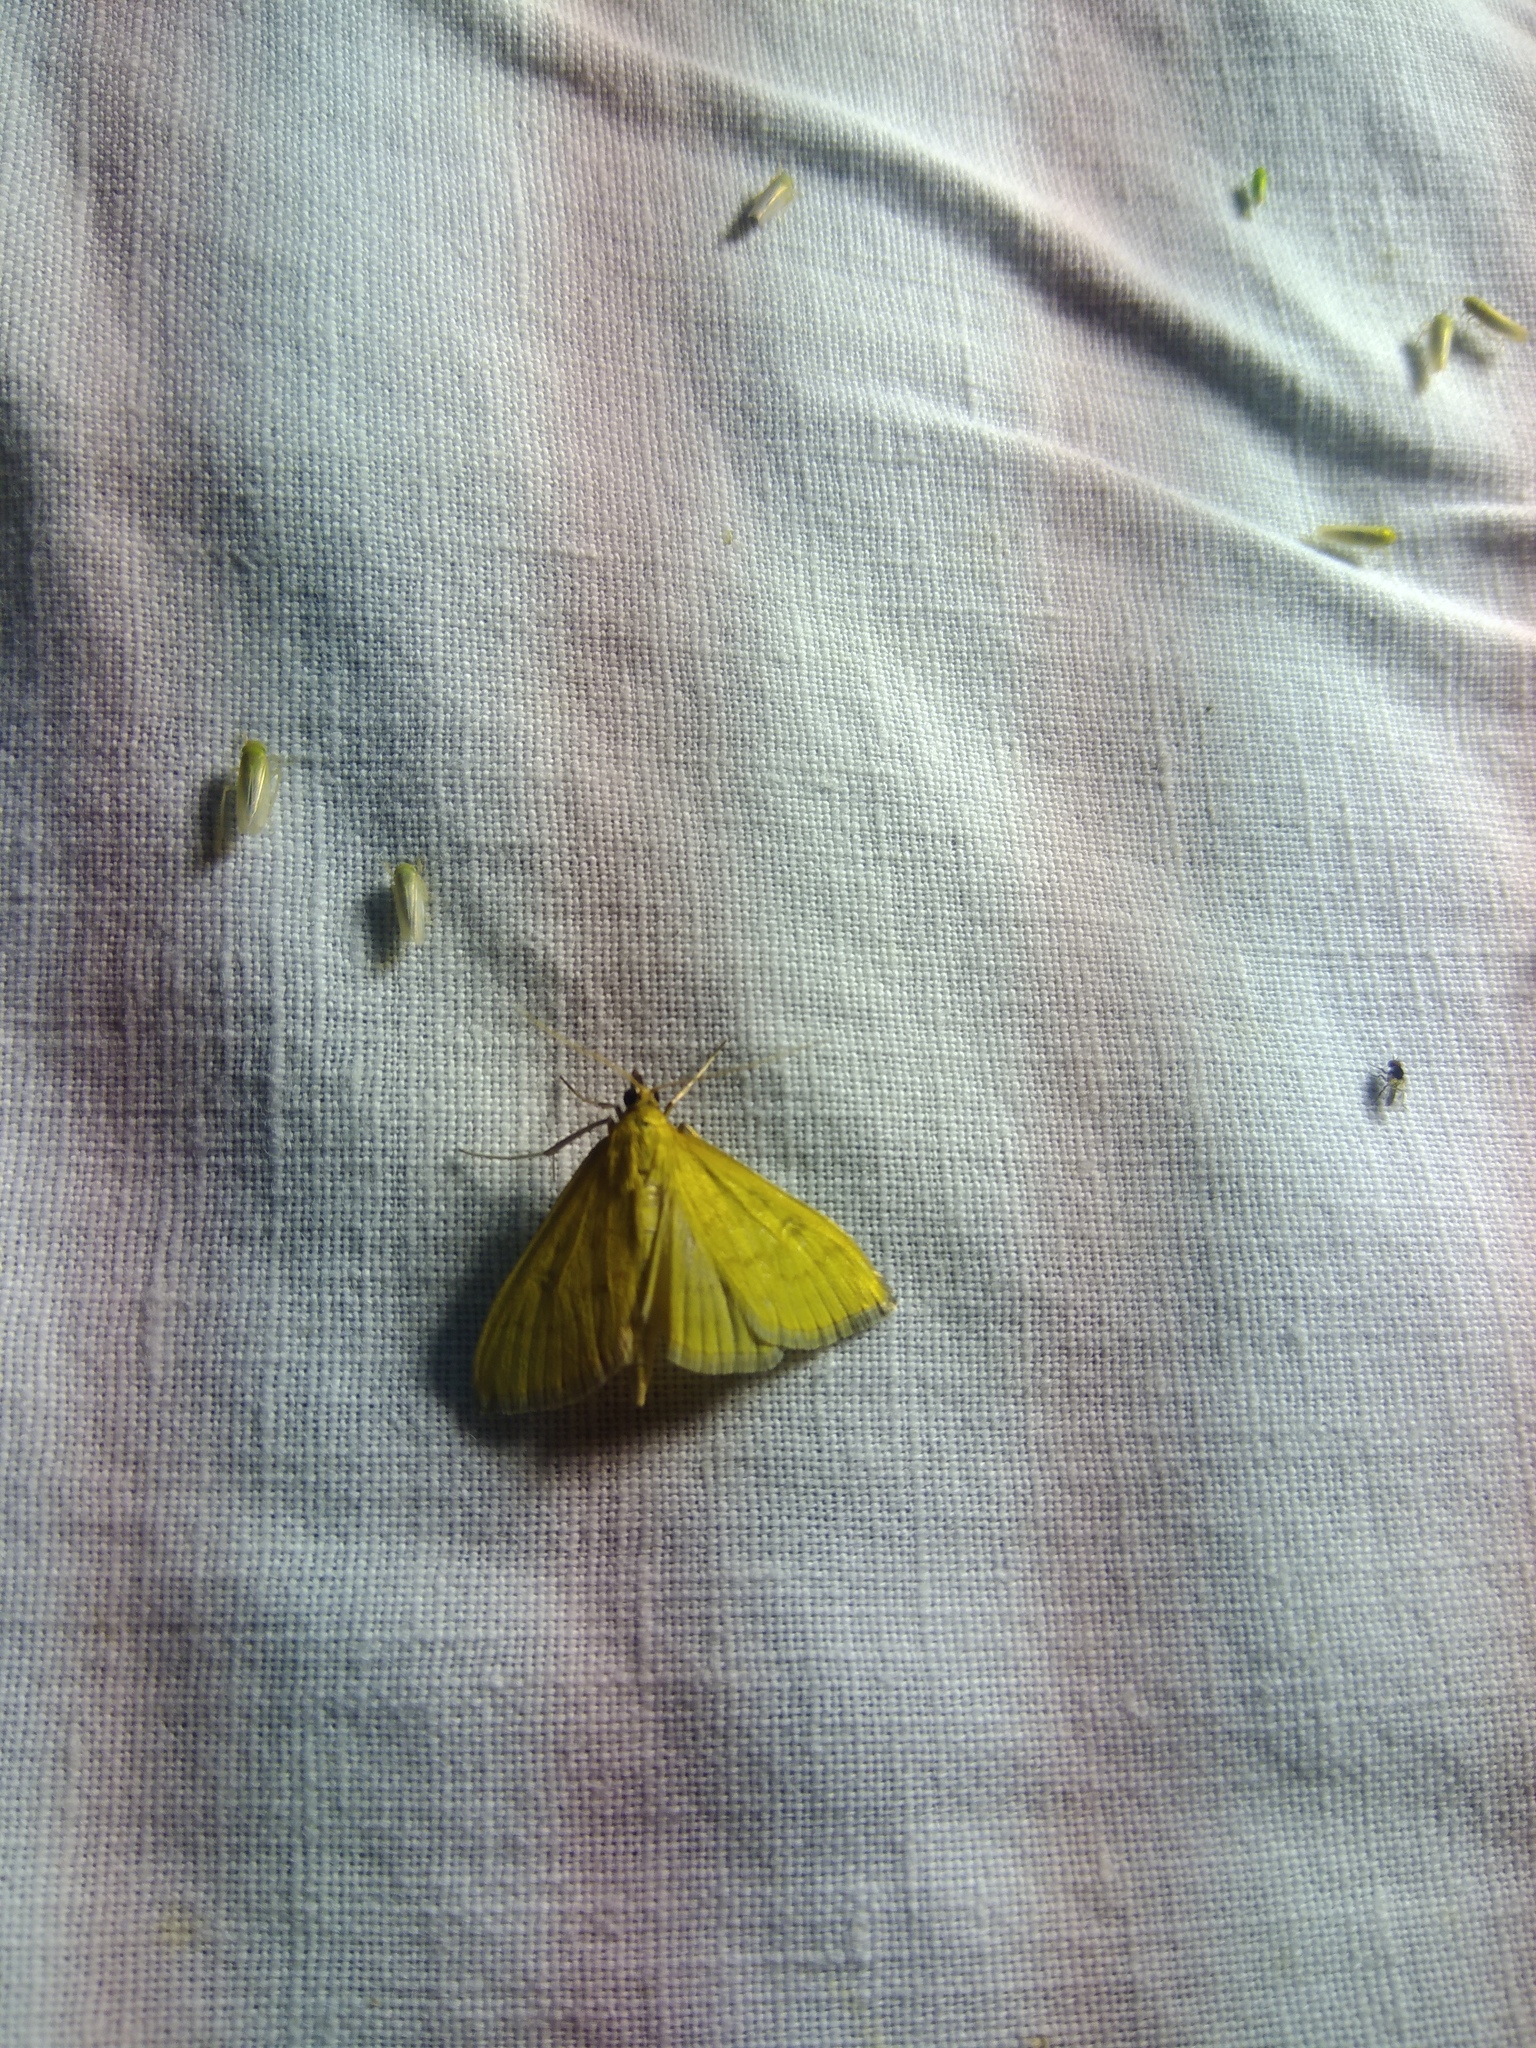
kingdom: Animalia
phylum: Arthropoda
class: Insecta
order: Lepidoptera
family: Crambidae
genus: Mecyna
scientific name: Mecyna flavalis
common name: Yellow pearl
